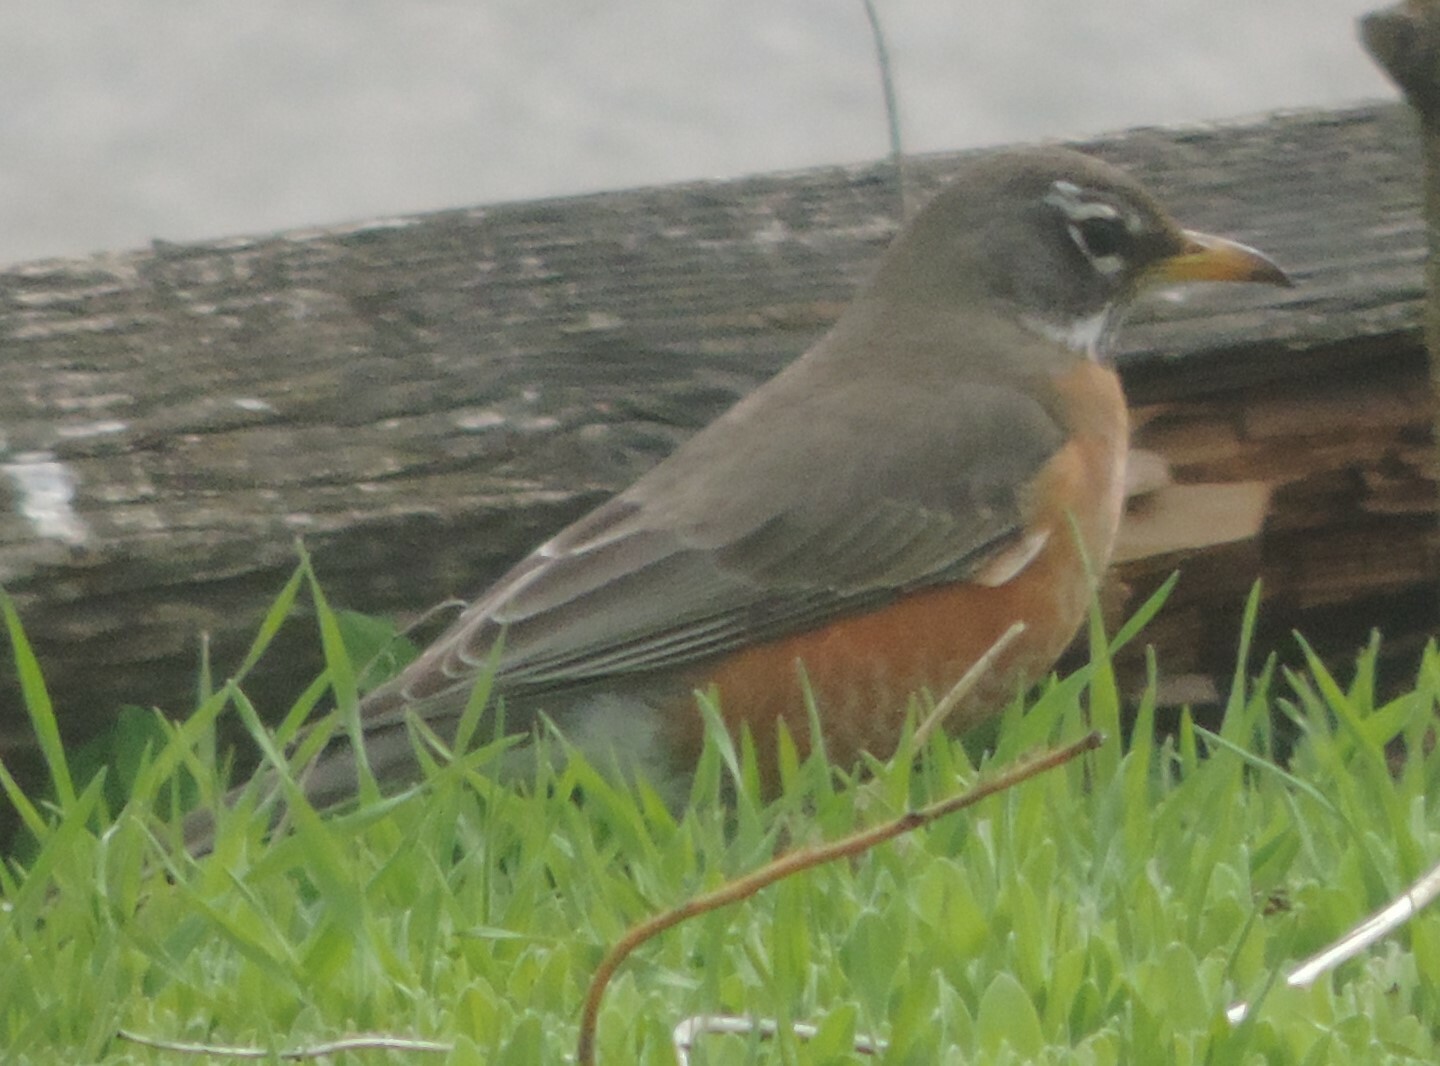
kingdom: Animalia
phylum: Chordata
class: Aves
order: Passeriformes
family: Turdidae
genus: Turdus
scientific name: Turdus migratorius
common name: American robin
